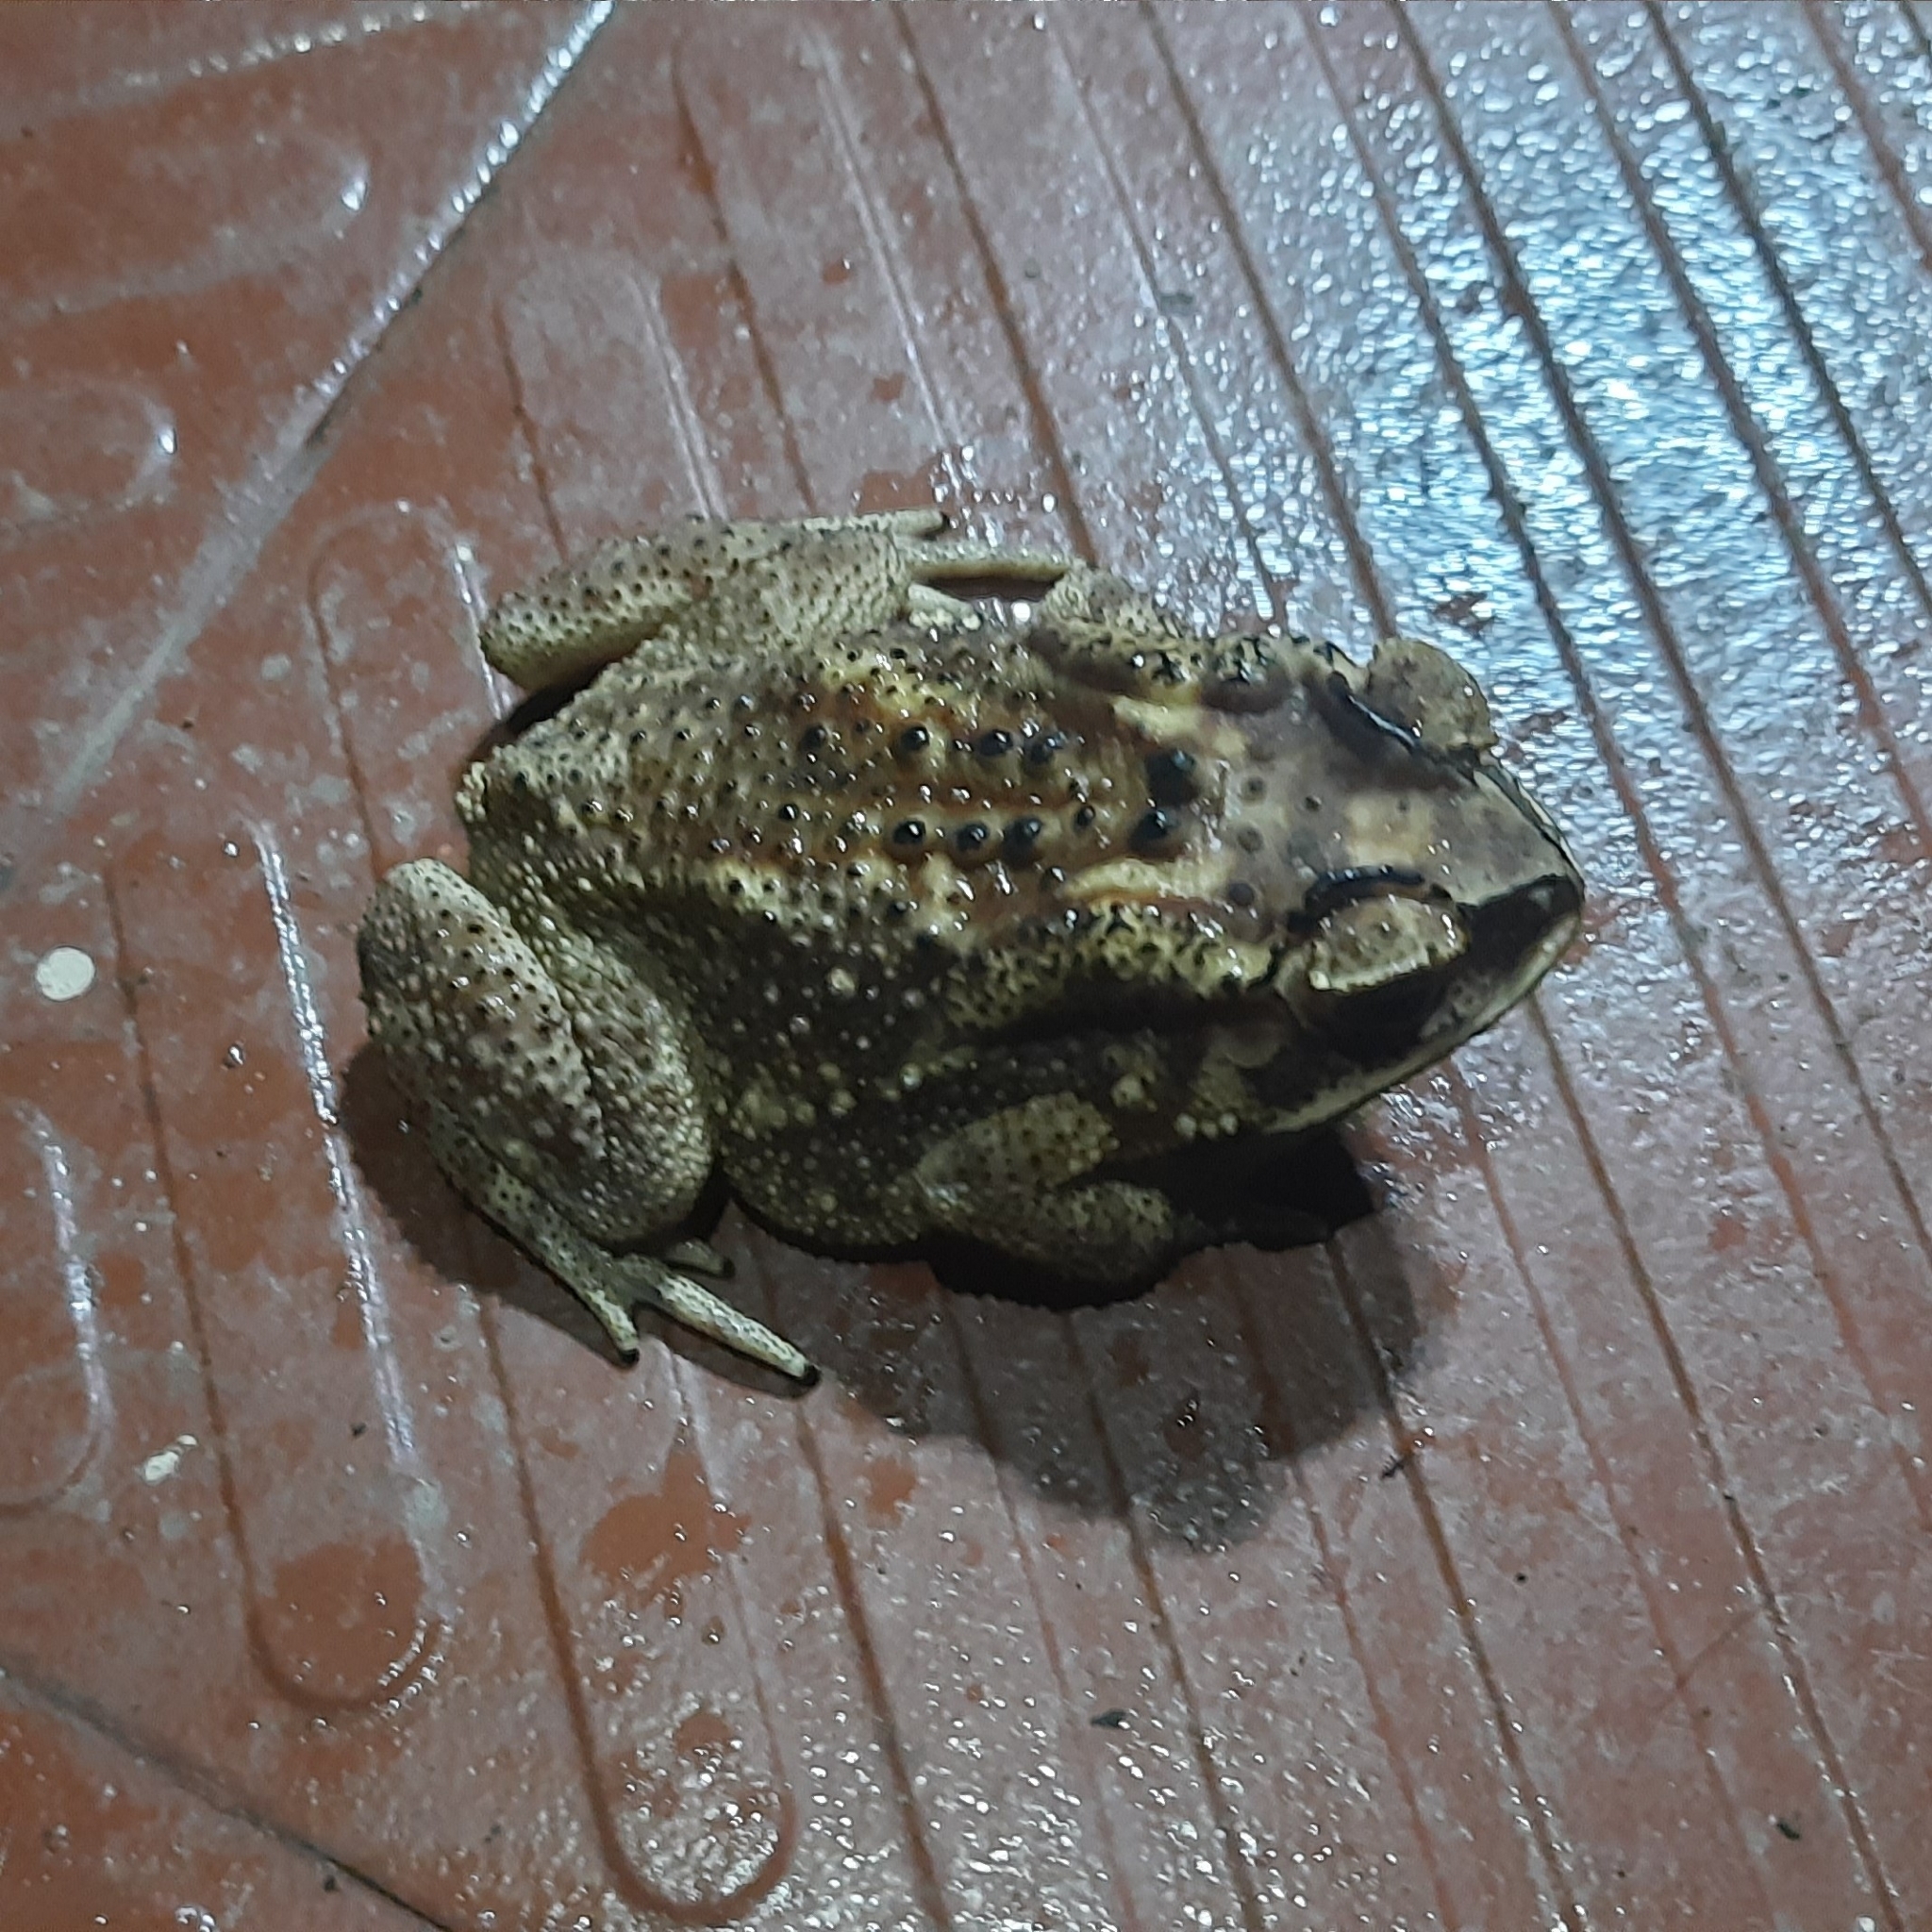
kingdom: Animalia
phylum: Chordata
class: Amphibia
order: Anura
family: Bufonidae
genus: Duttaphrynus
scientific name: Duttaphrynus melanostictus
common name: Common sunda toad
